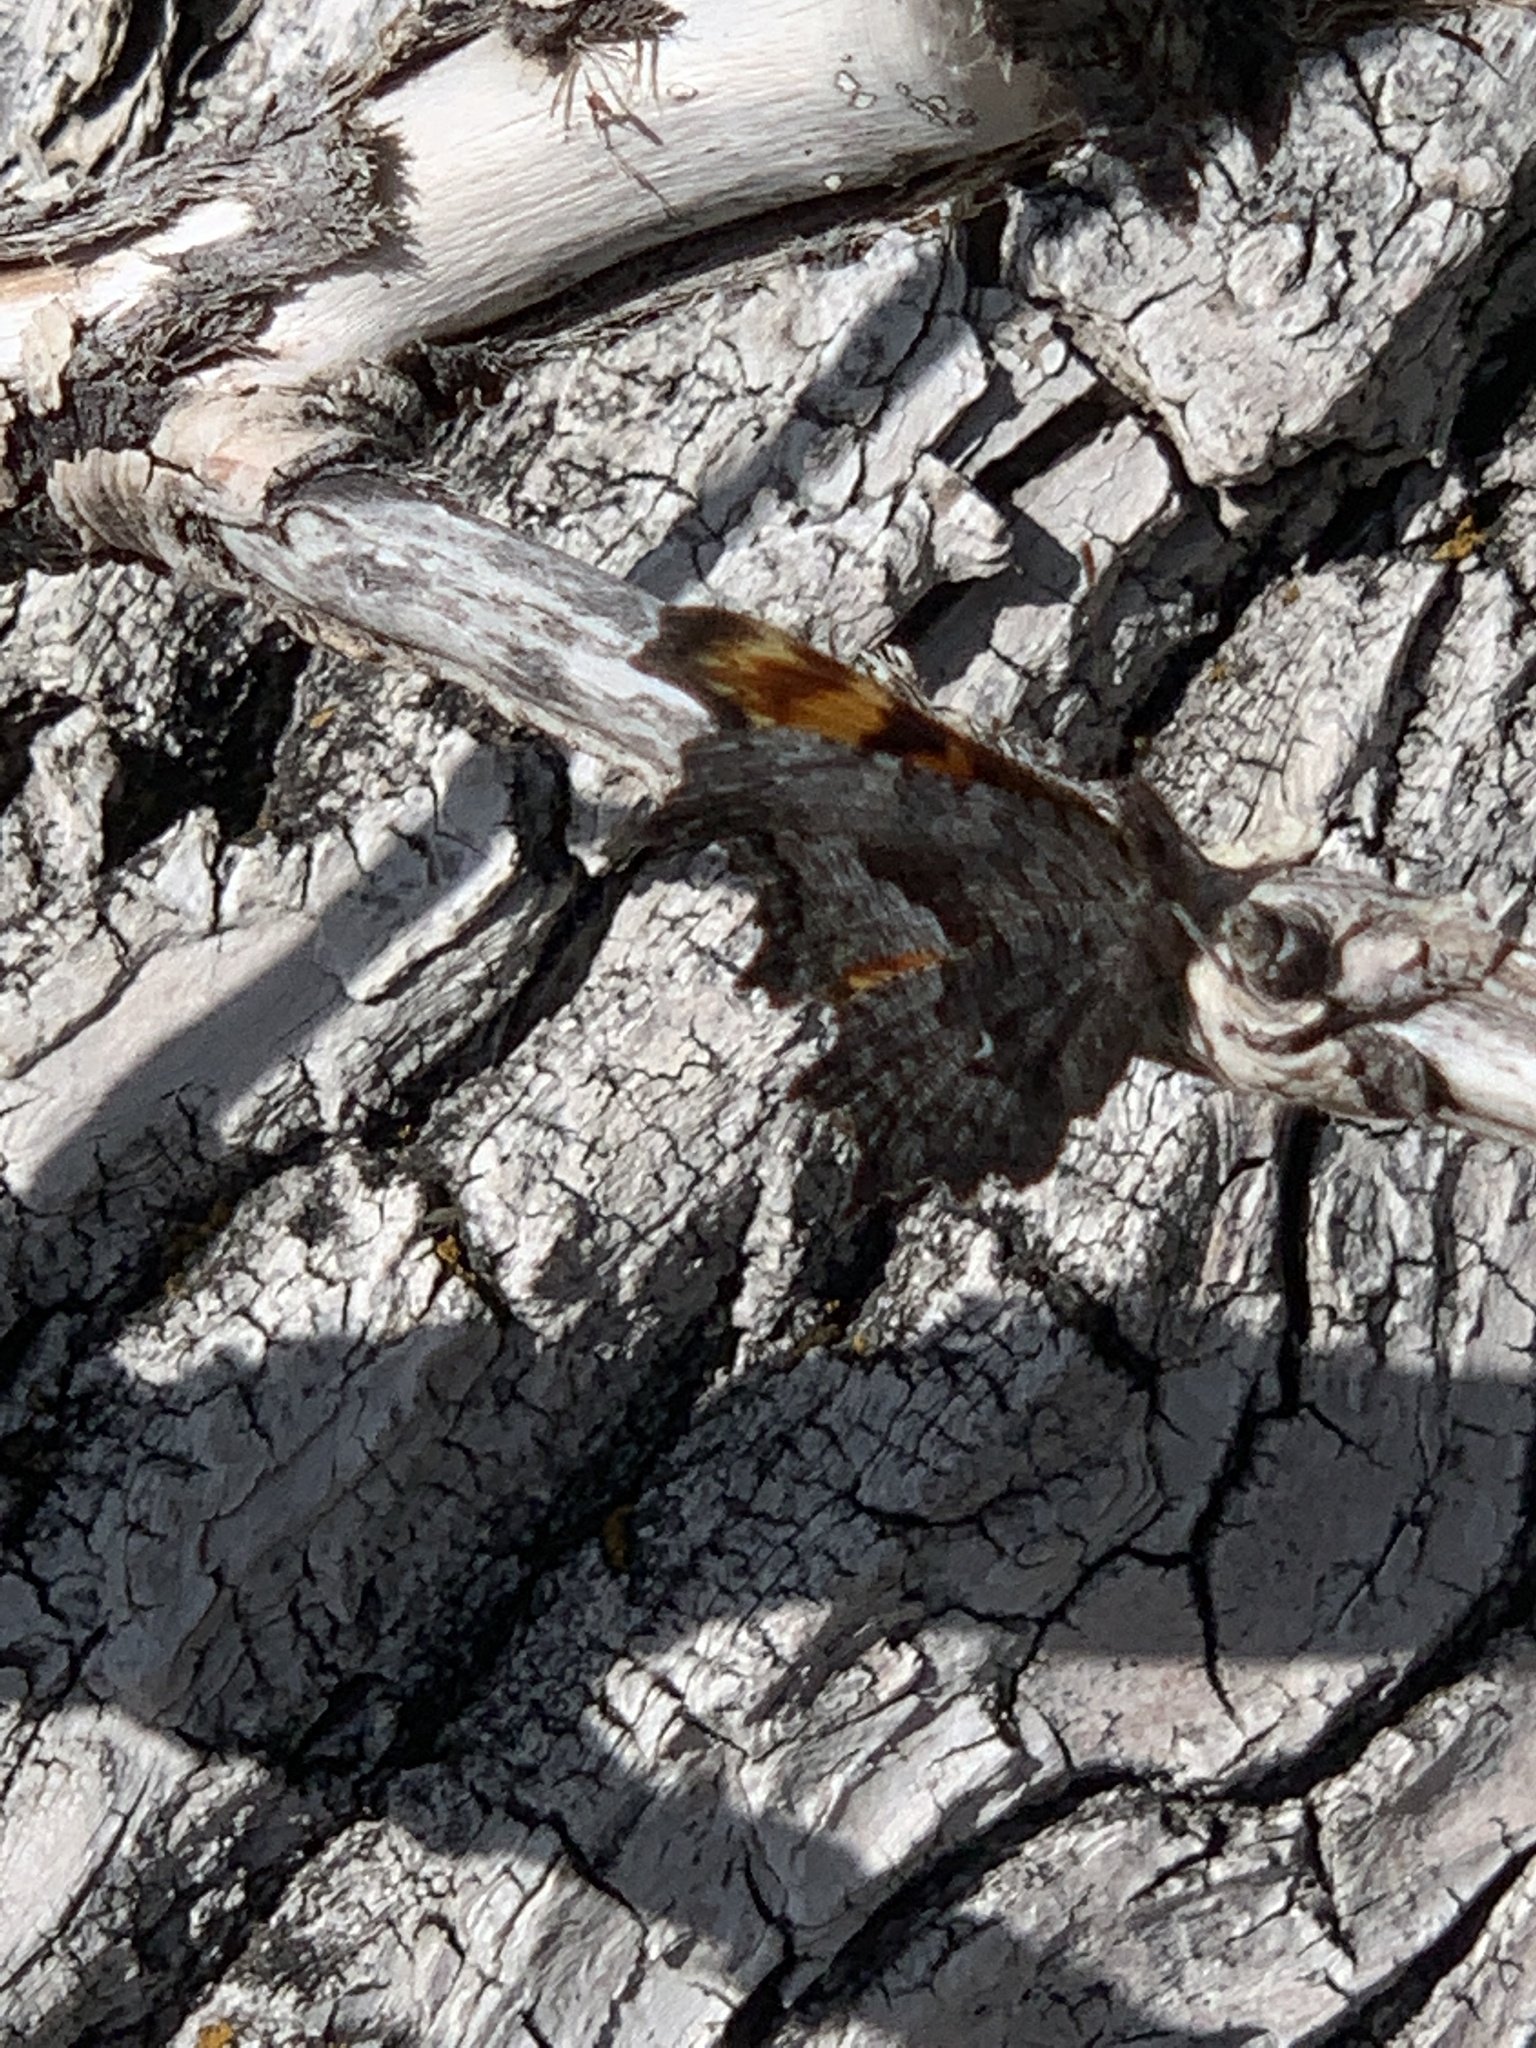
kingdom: Animalia
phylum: Arthropoda
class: Insecta
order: Lepidoptera
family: Nymphalidae
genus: Polygonia
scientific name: Polygonia gracilis
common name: Hoary comma
